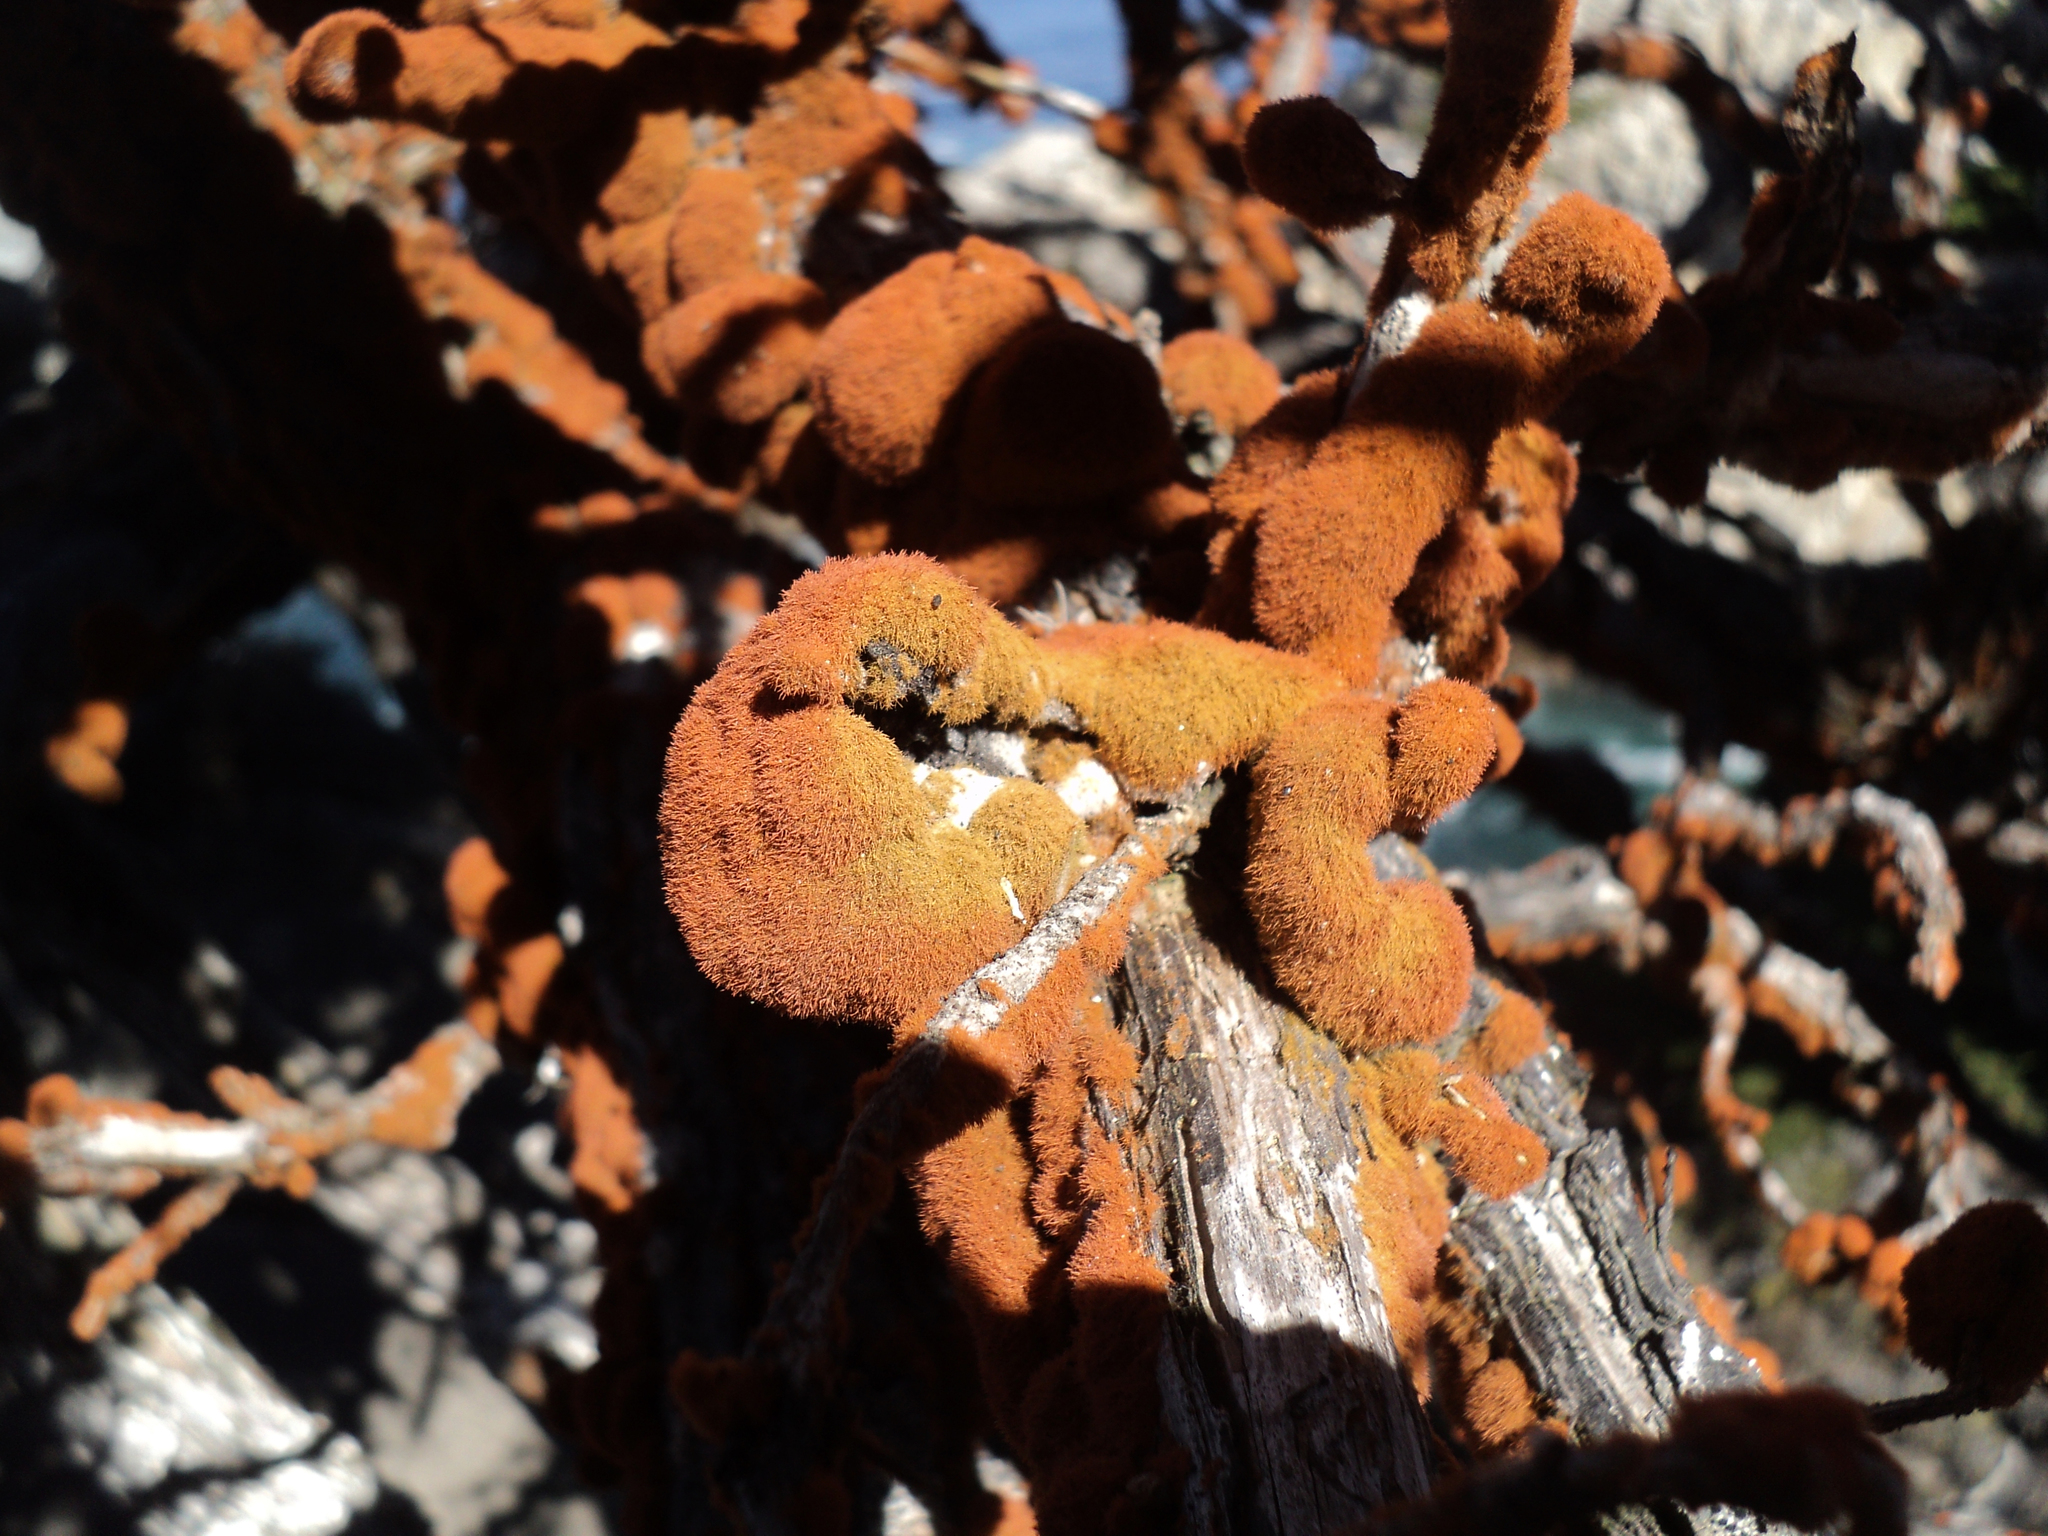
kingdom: Plantae
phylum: Chlorophyta
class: Ulvophyceae
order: Trentepohliales
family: Trentepohliaceae
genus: Trentepohlia
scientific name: Trentepohlia
